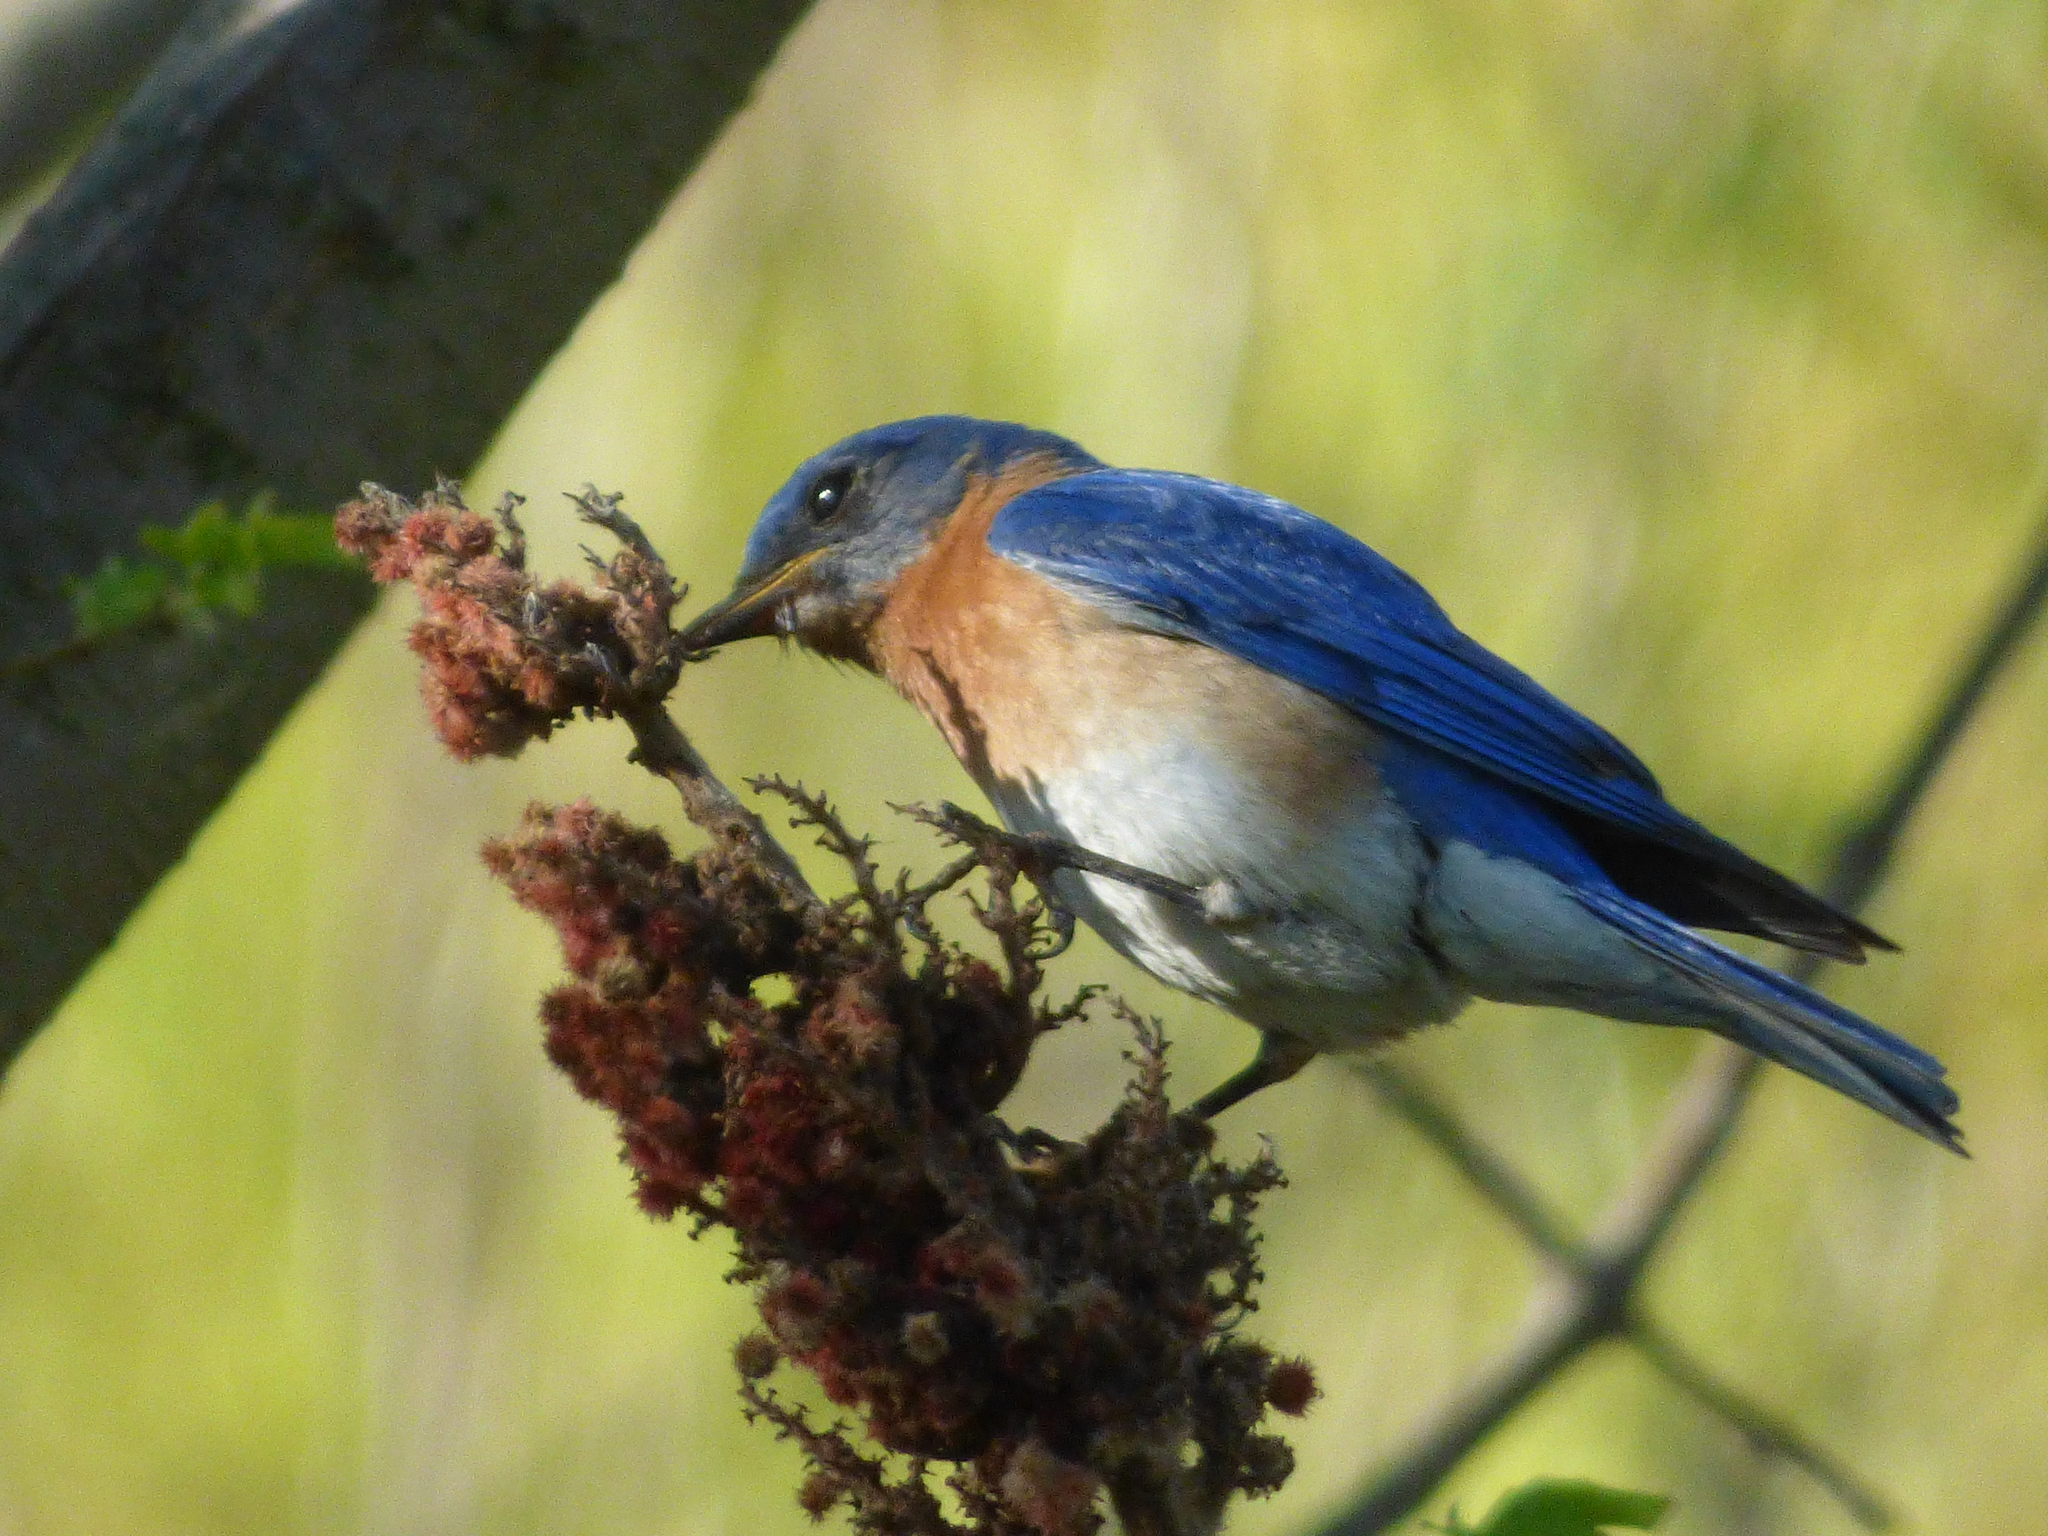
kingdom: Animalia
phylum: Chordata
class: Aves
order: Passeriformes
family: Turdidae
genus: Sialia
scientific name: Sialia sialis
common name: Eastern bluebird
